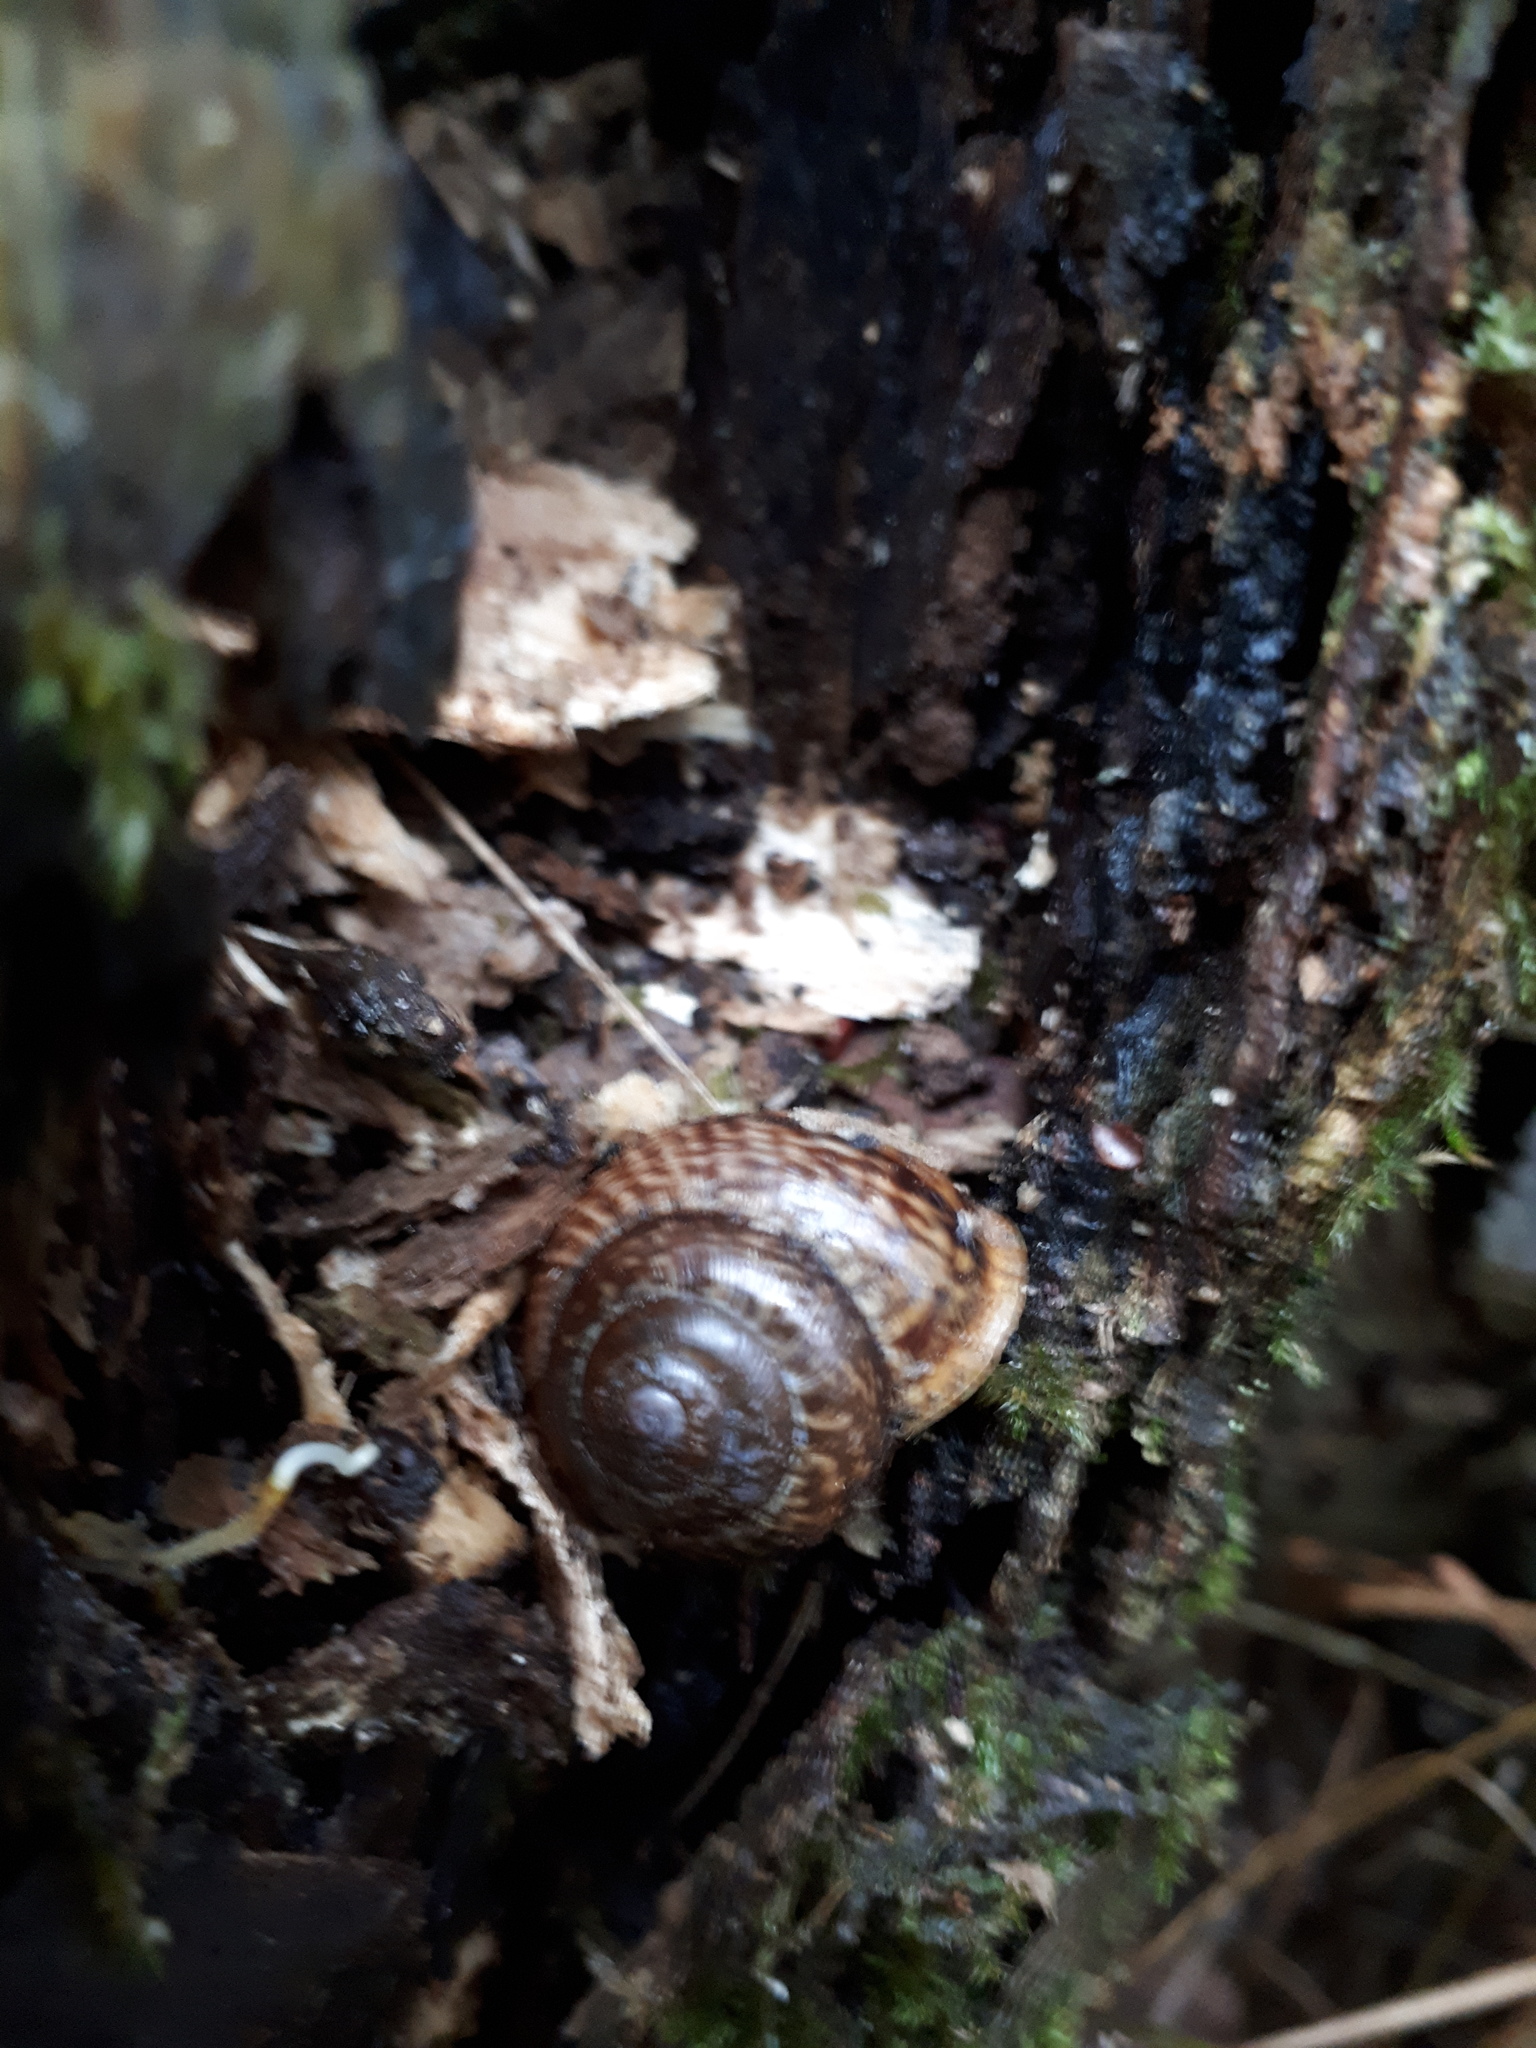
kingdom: Animalia
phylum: Mollusca
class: Gastropoda
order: Stylommatophora
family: Helicidae
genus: Arianta
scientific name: Arianta arbustorum
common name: Copse snail
